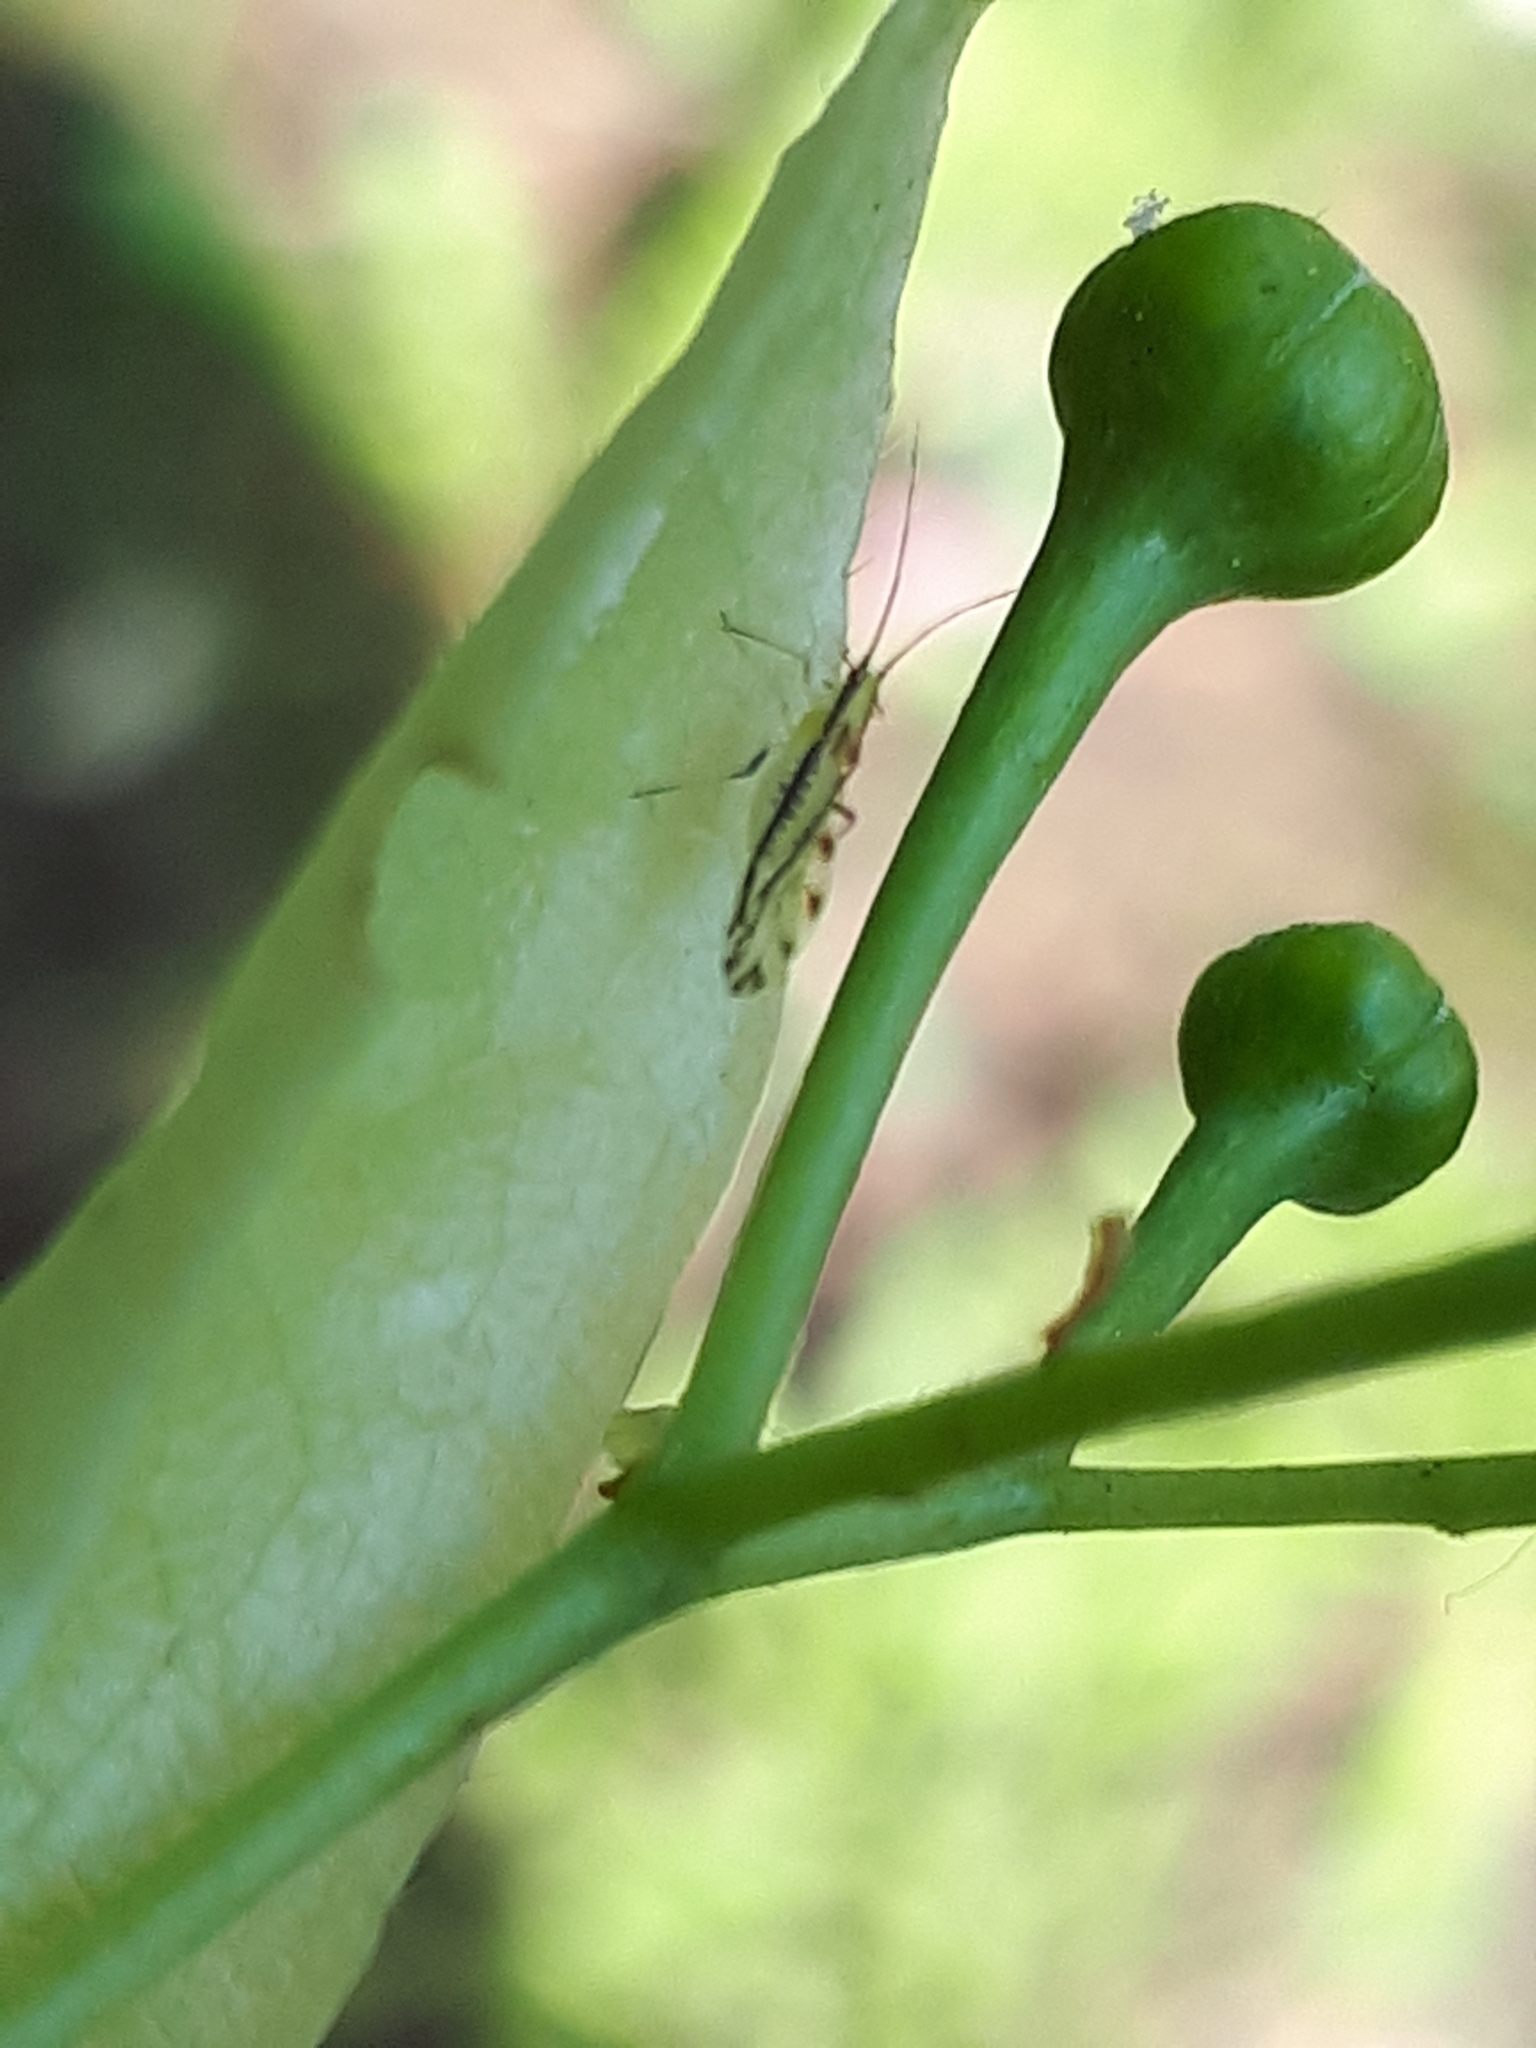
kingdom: Animalia
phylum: Arthropoda
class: Insecta
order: Hemiptera
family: Aphididae
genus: Eucallipterus
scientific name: Eucallipterus tiliae
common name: Aphid
